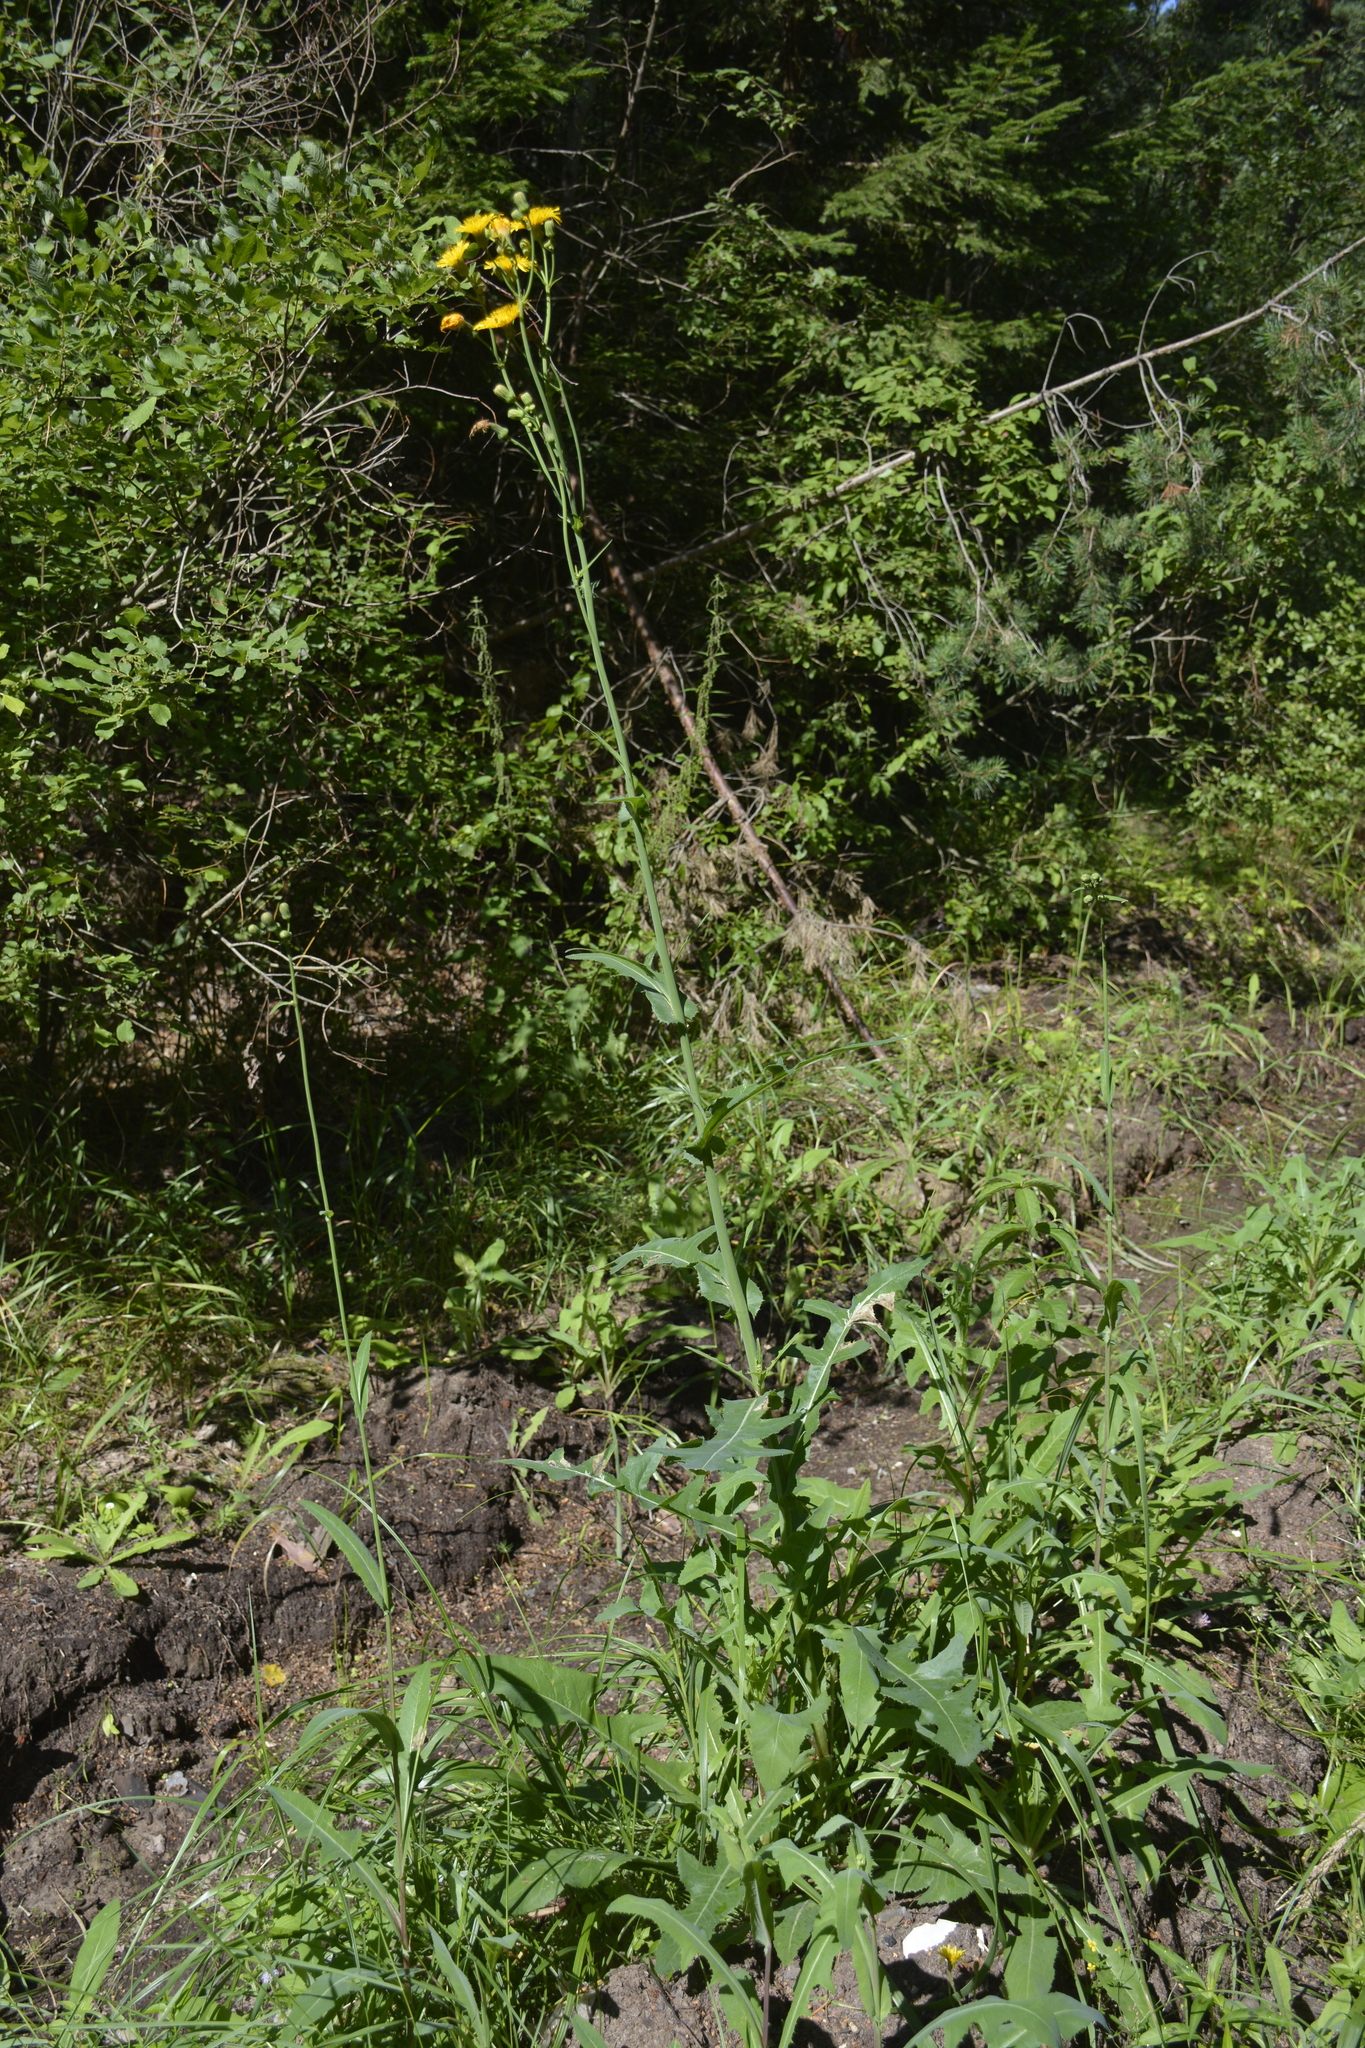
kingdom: Plantae
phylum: Tracheophyta
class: Magnoliopsida
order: Asterales
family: Asteraceae
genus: Sonchus
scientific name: Sonchus arvensis
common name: Perennial sow-thistle
